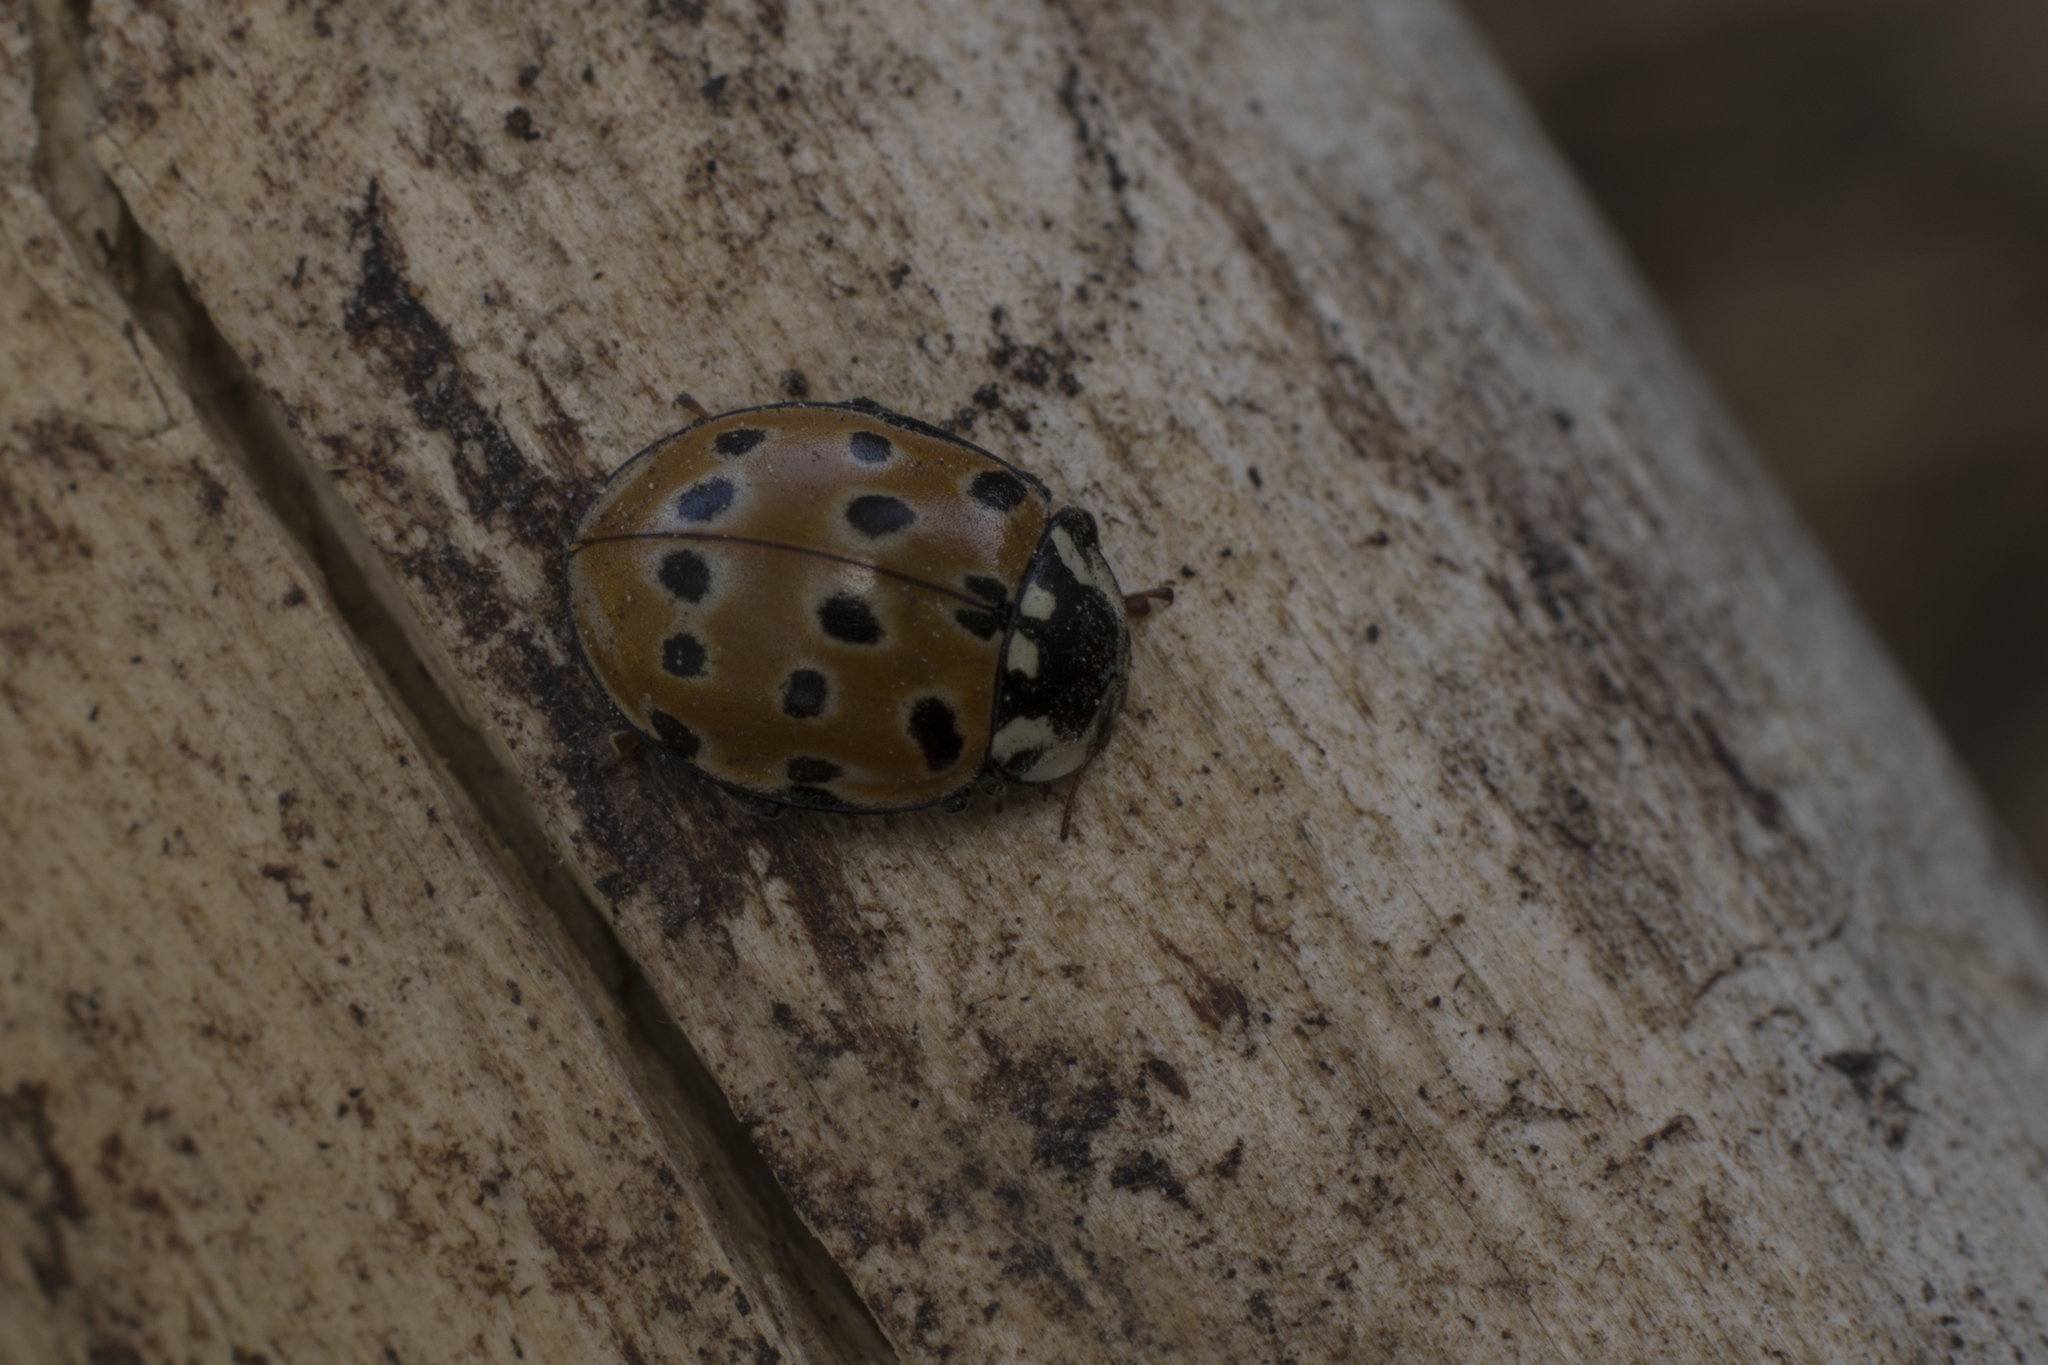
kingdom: Animalia
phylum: Arthropoda
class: Insecta
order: Coleoptera
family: Coccinellidae
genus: Anatis
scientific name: Anatis ocellata
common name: Eyed ladybird
